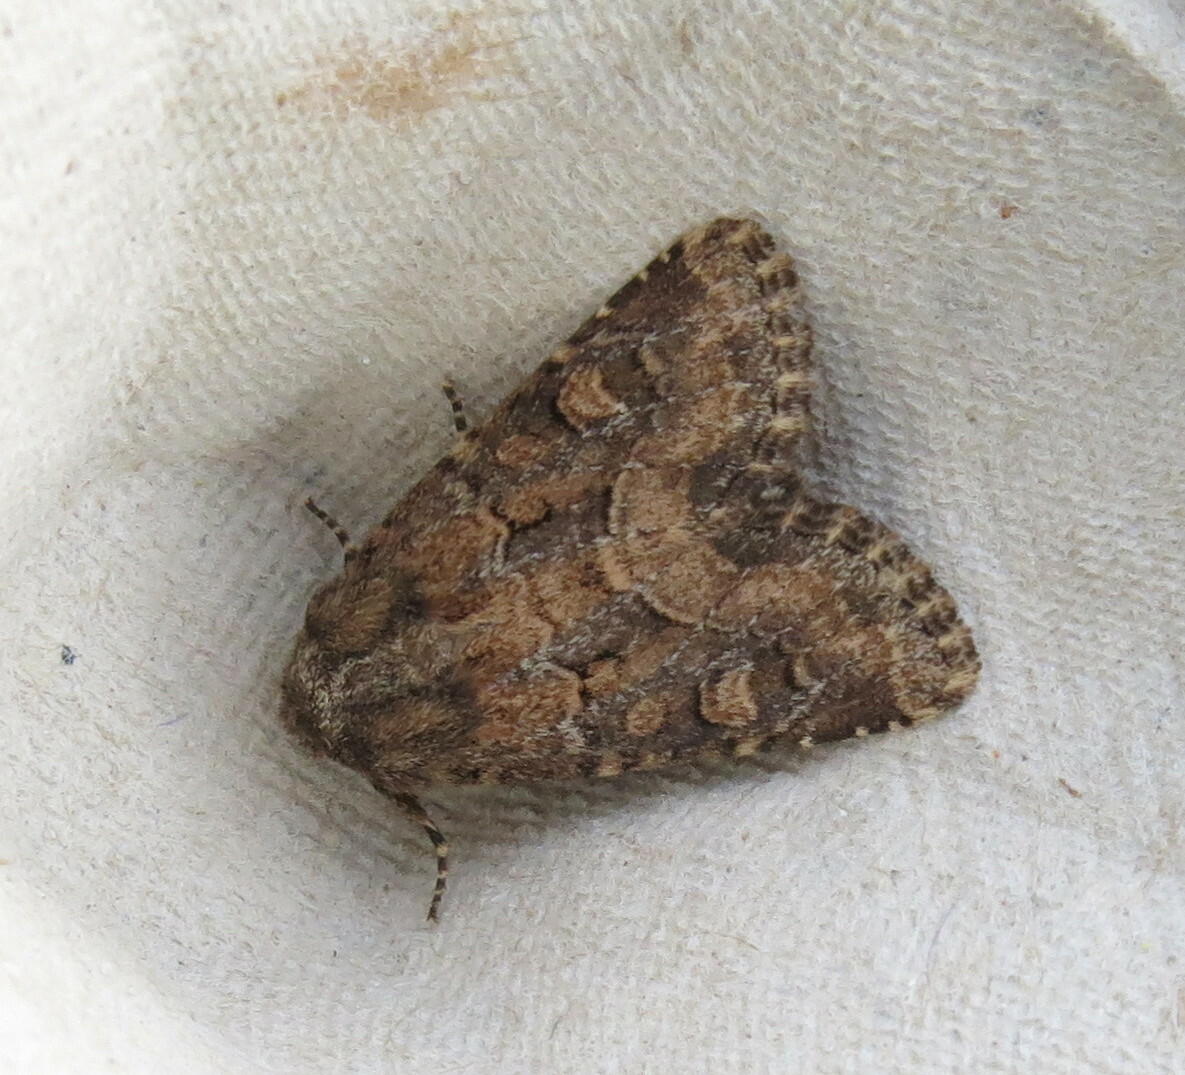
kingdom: Animalia
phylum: Arthropoda
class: Insecta
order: Lepidoptera
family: Noctuidae
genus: Luperina
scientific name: Luperina testacea
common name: Flounced rustic
